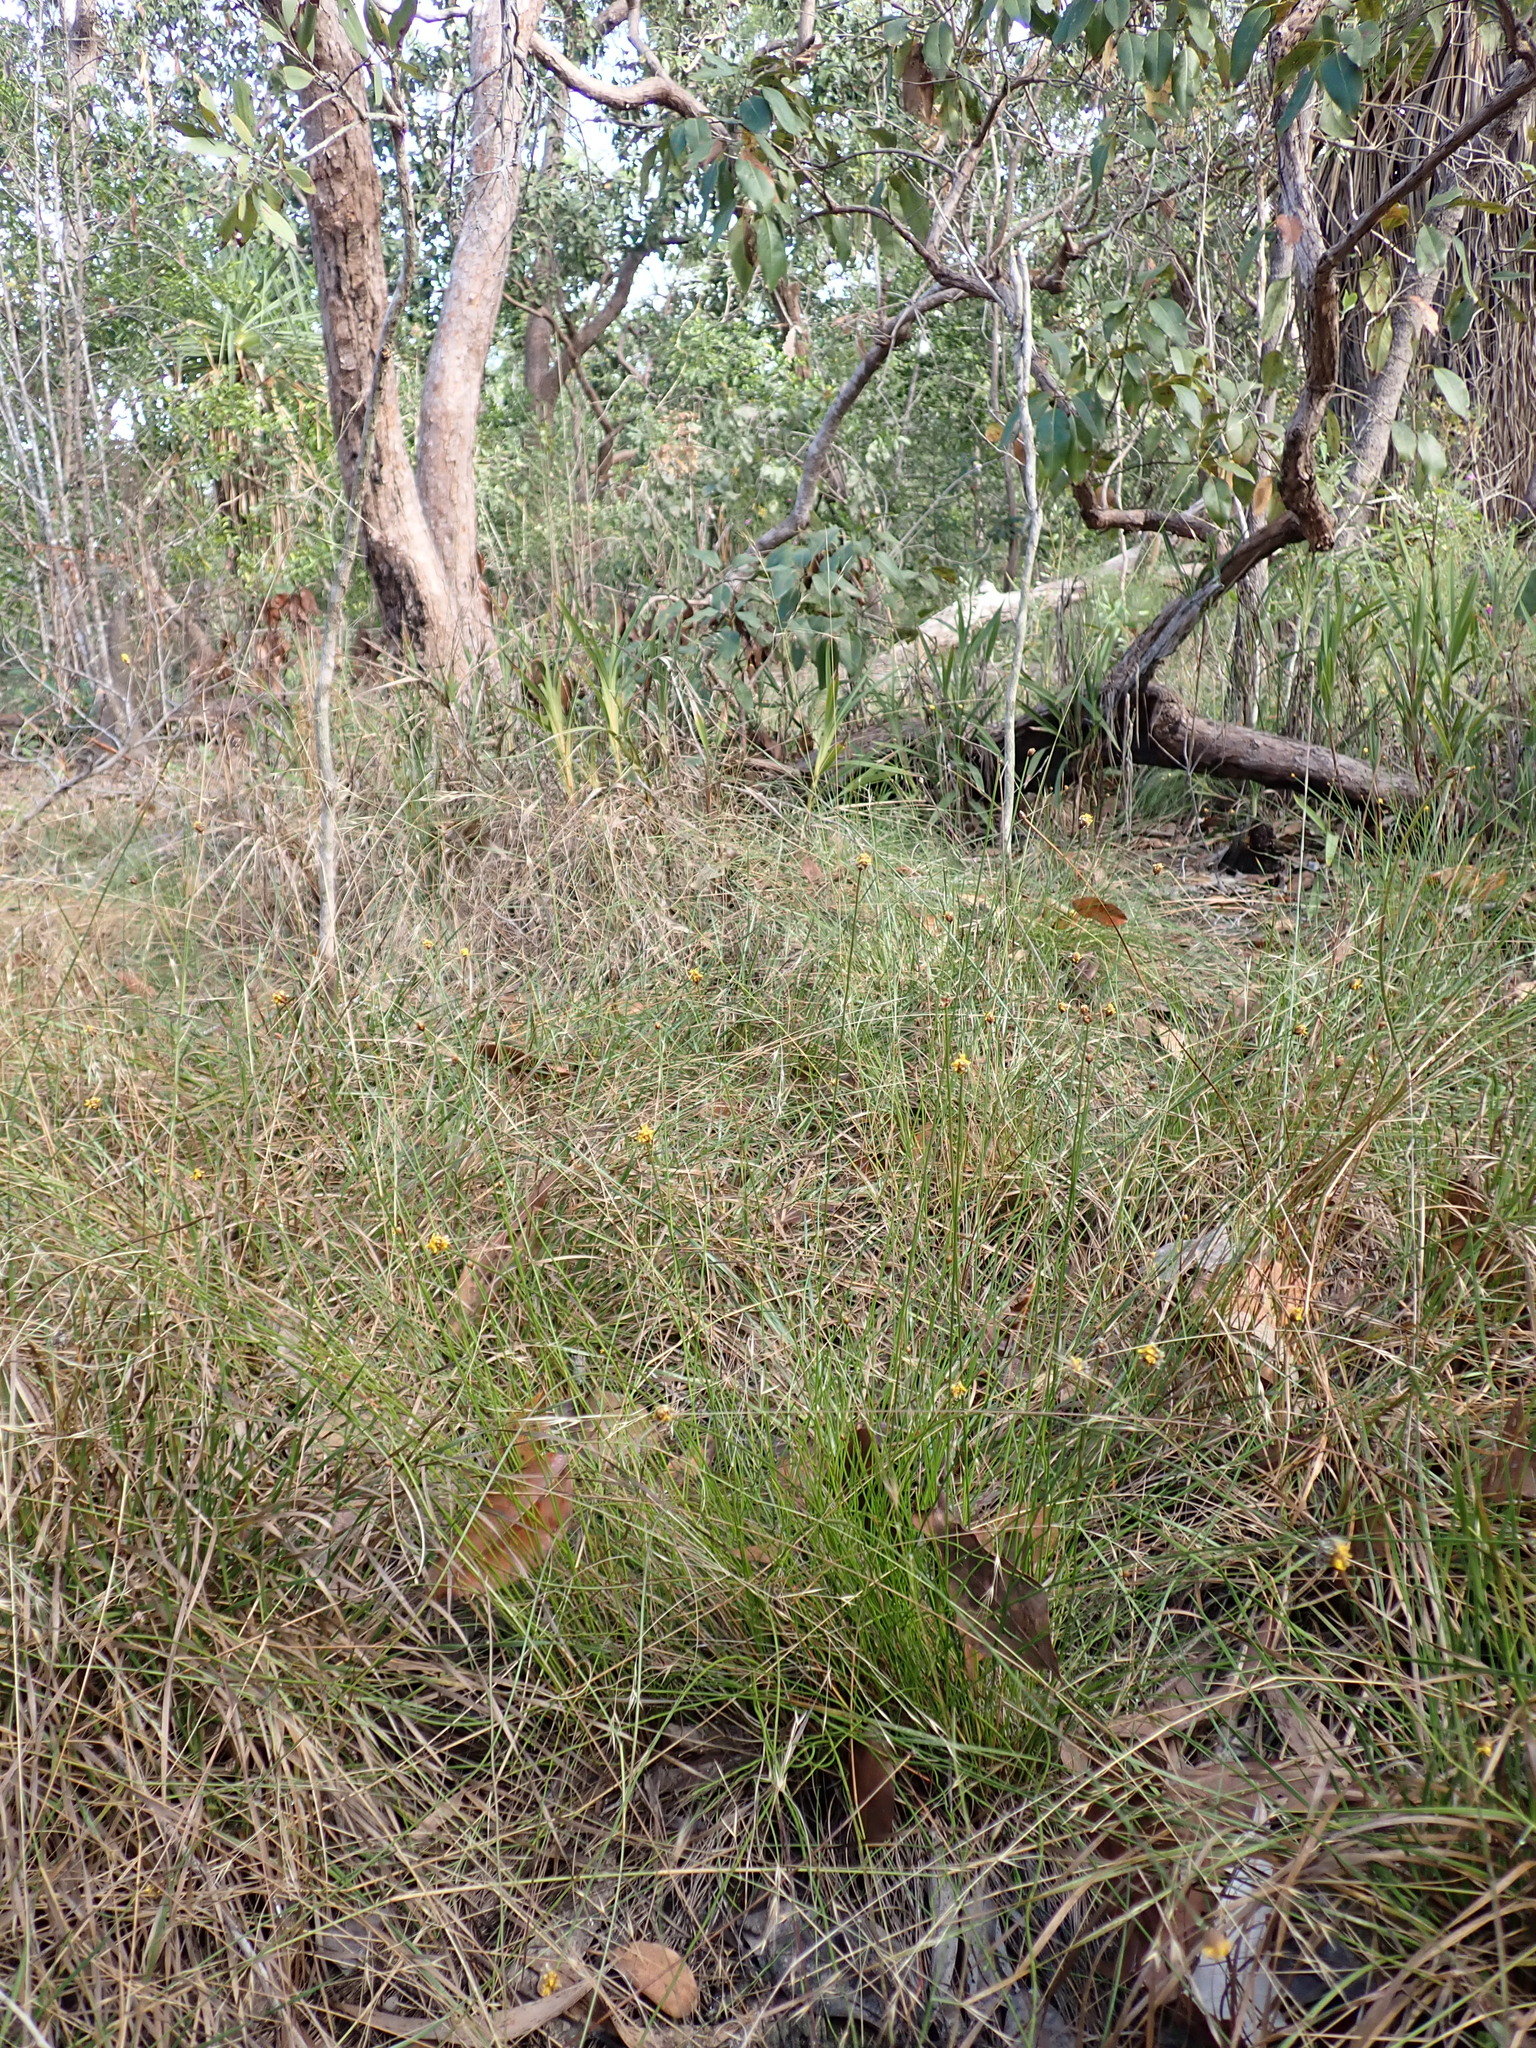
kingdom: Plantae
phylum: Tracheophyta
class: Liliopsida
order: Poales
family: Xyridaceae
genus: Xyris
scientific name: Xyris indica
